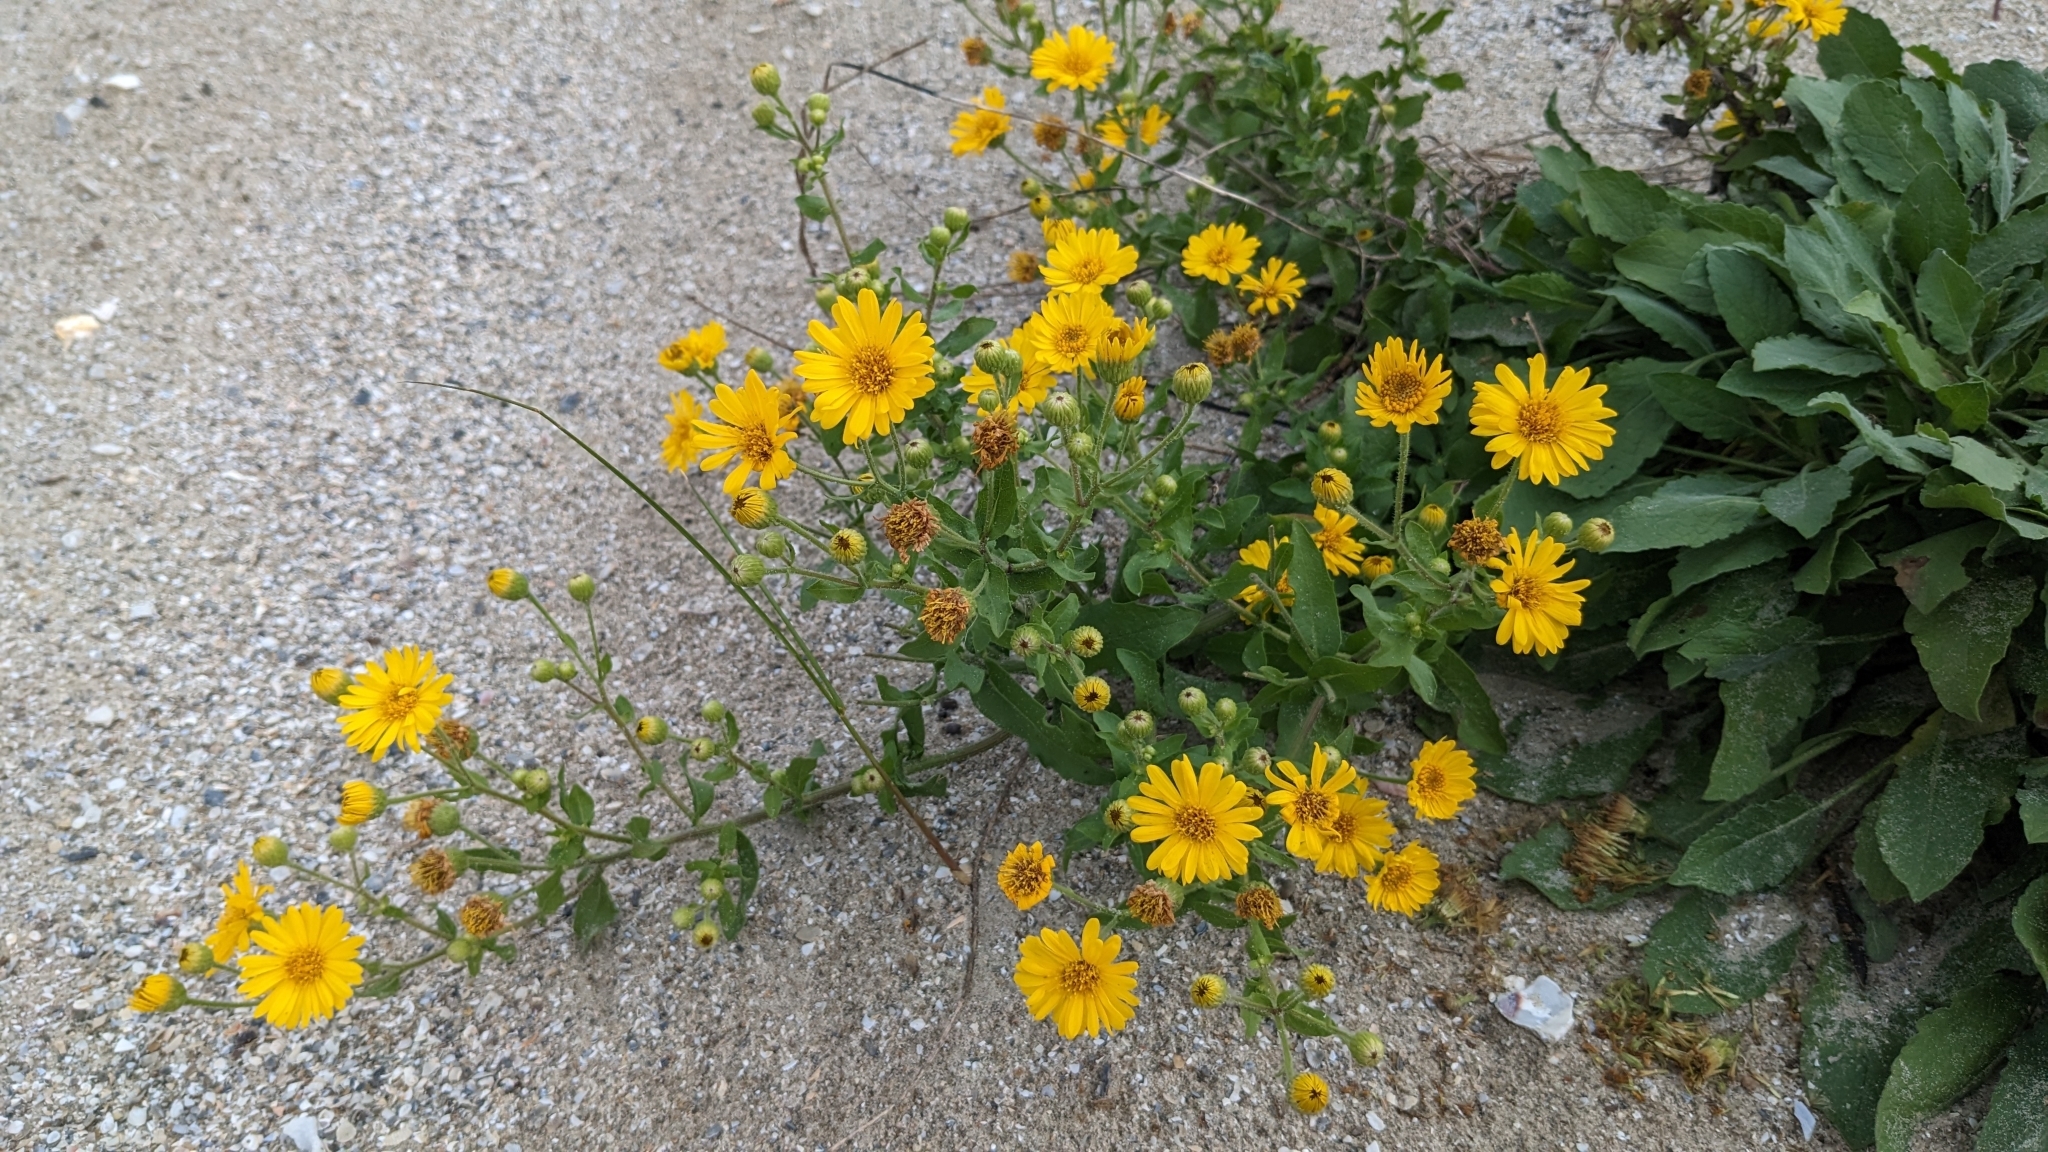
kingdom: Plantae
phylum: Tracheophyta
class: Magnoliopsida
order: Asterales
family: Asteraceae
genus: Heterotheca
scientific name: Heterotheca subaxillaris
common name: Camphorweed
